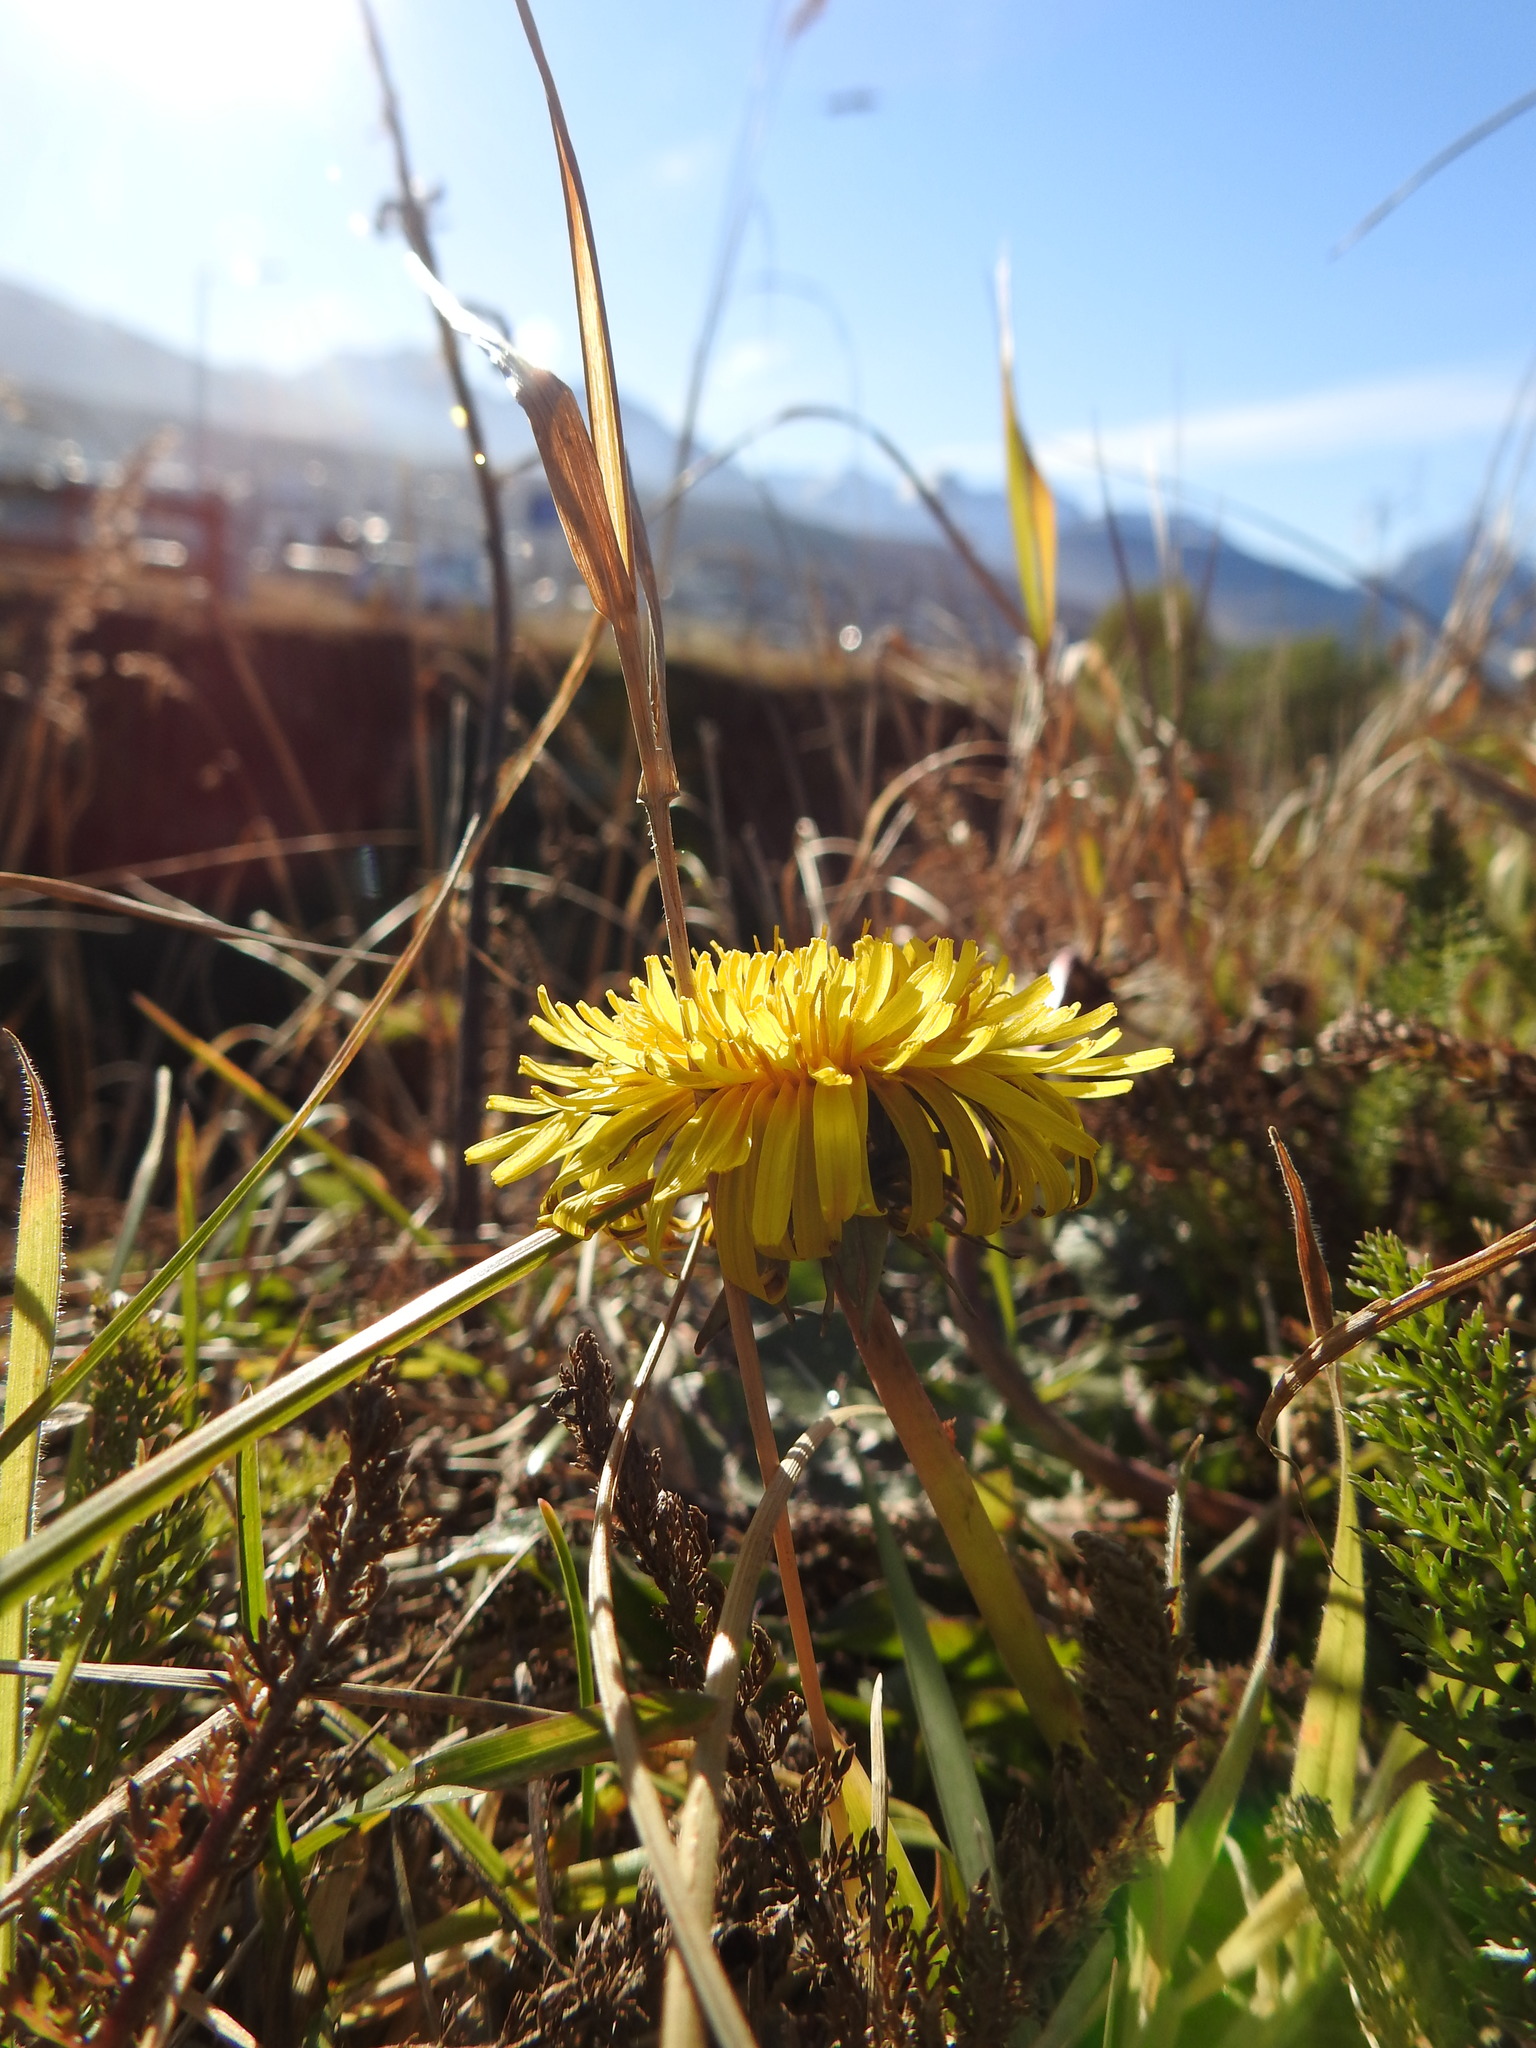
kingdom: Plantae
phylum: Tracheophyta
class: Magnoliopsida
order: Asterales
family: Asteraceae
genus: Taraxacum
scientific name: Taraxacum officinale
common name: Common dandelion
